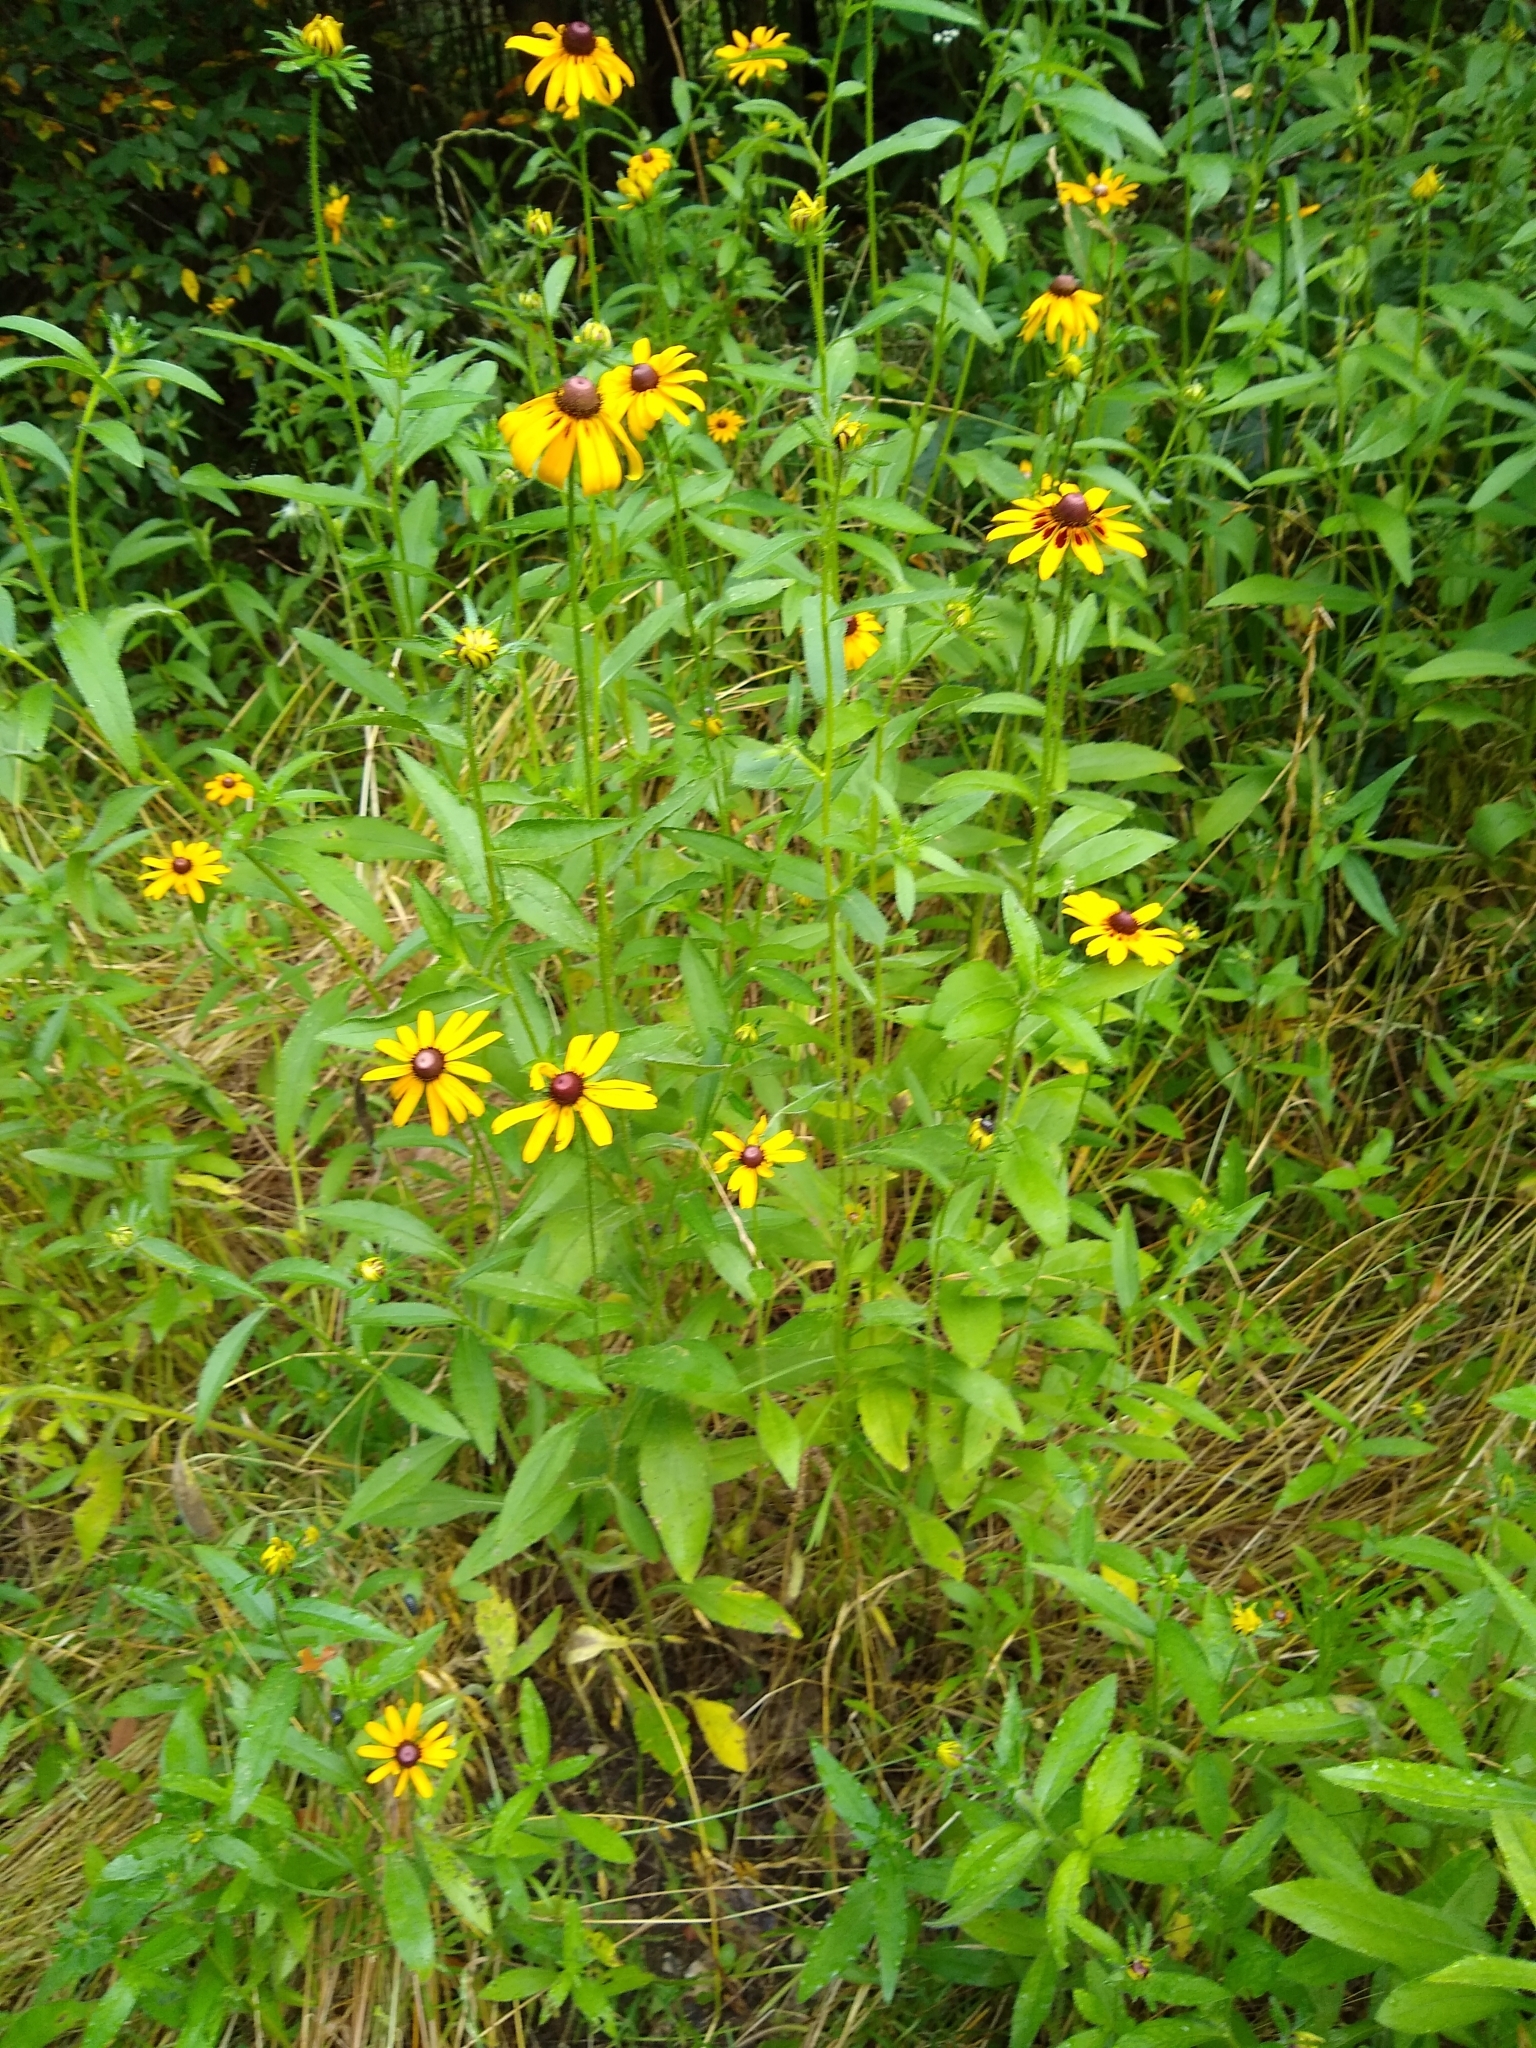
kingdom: Plantae
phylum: Tracheophyta
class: Magnoliopsida
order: Asterales
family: Asteraceae
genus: Rudbeckia
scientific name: Rudbeckia hirta
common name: Black-eyed-susan
